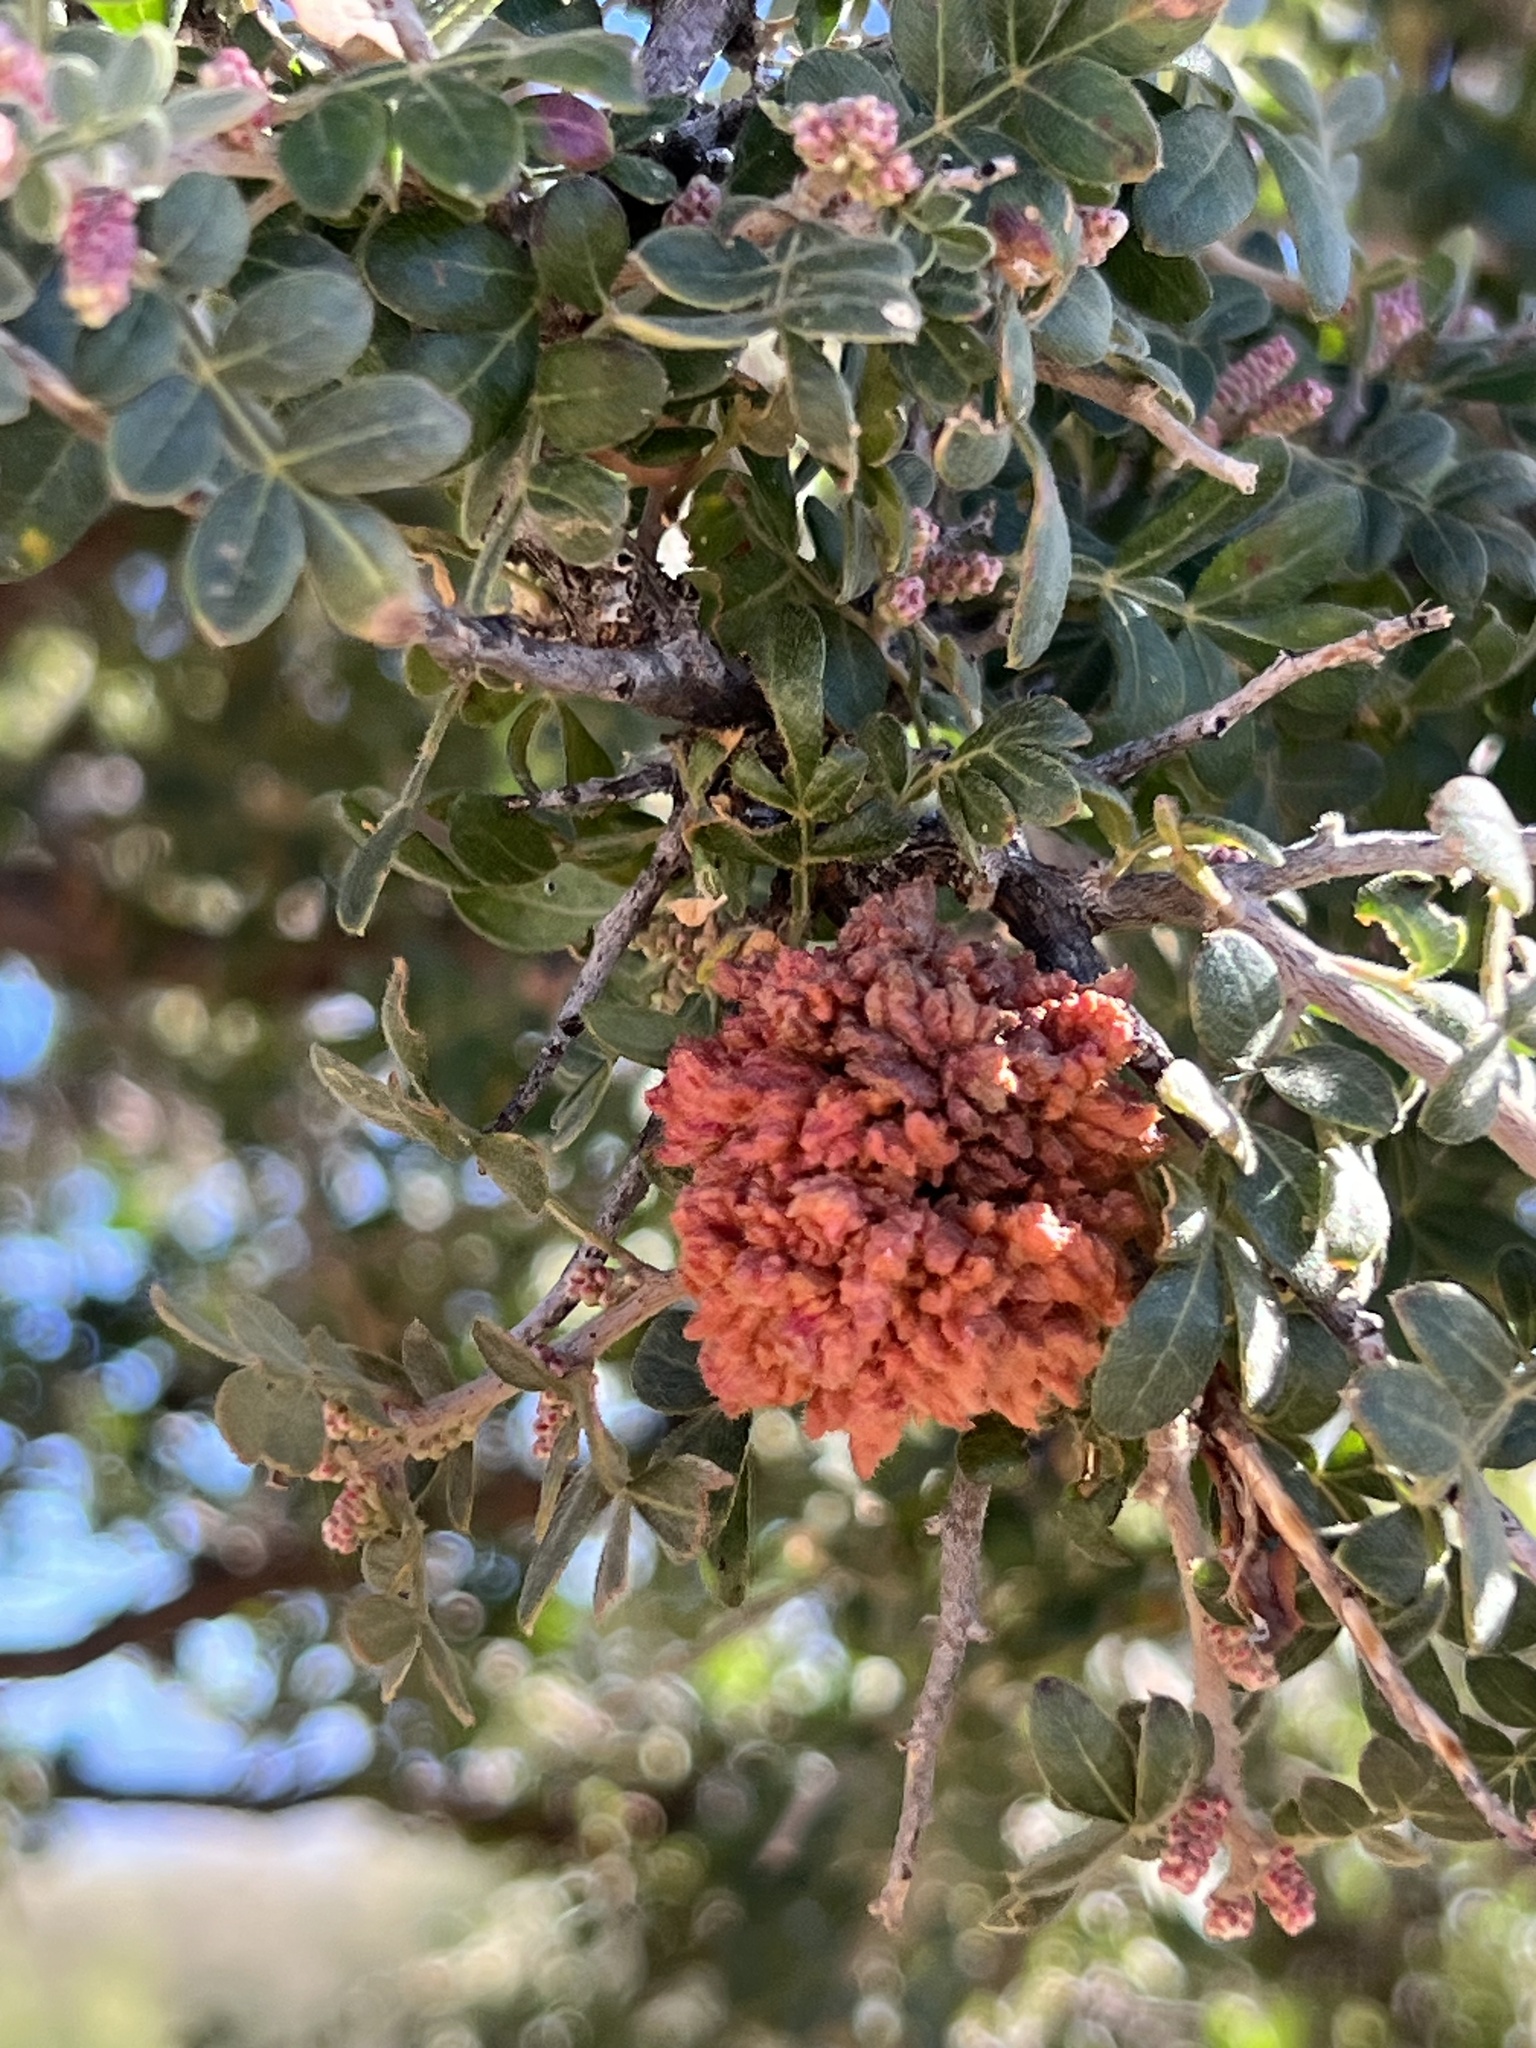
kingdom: Animalia
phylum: Arthropoda
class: Arachnida
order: Trombidiformes
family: Eriophyidae
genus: Aculops
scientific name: Aculops
